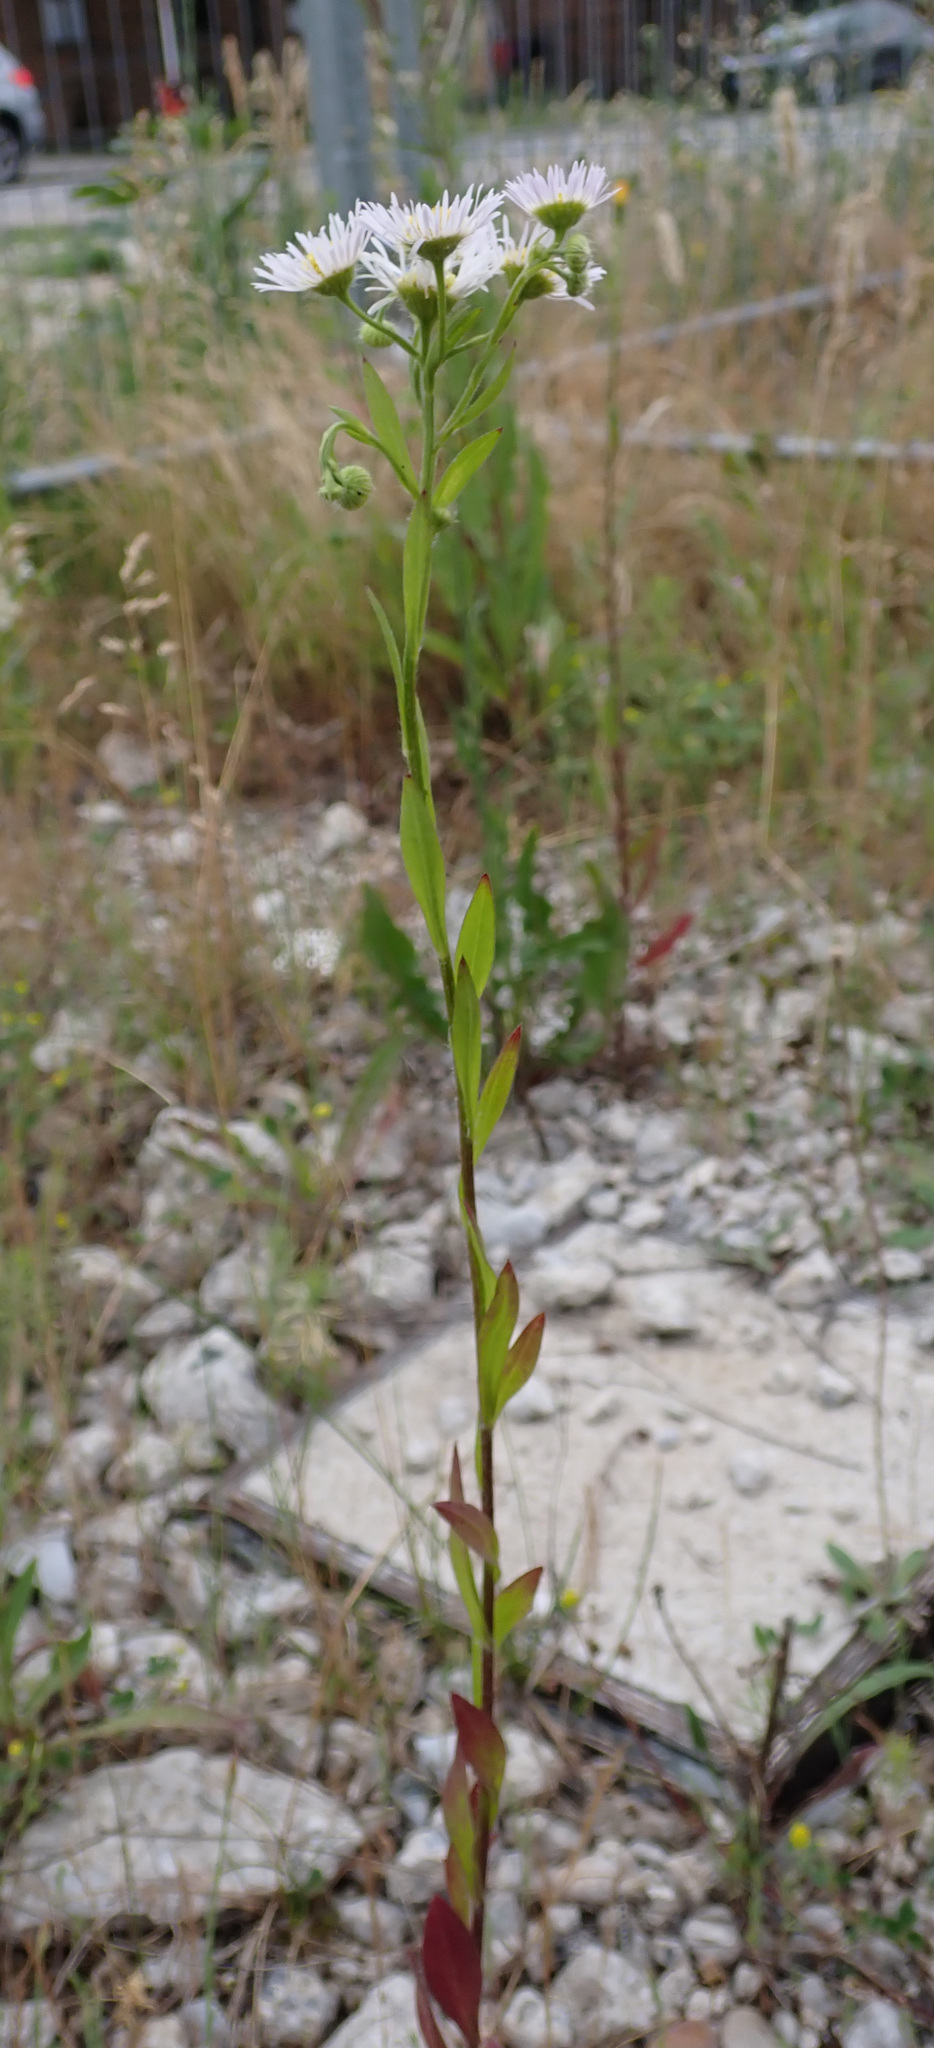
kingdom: Plantae
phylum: Tracheophyta
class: Magnoliopsida
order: Asterales
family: Asteraceae
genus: Erigeron
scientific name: Erigeron strigosus
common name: Common eastern fleabane
